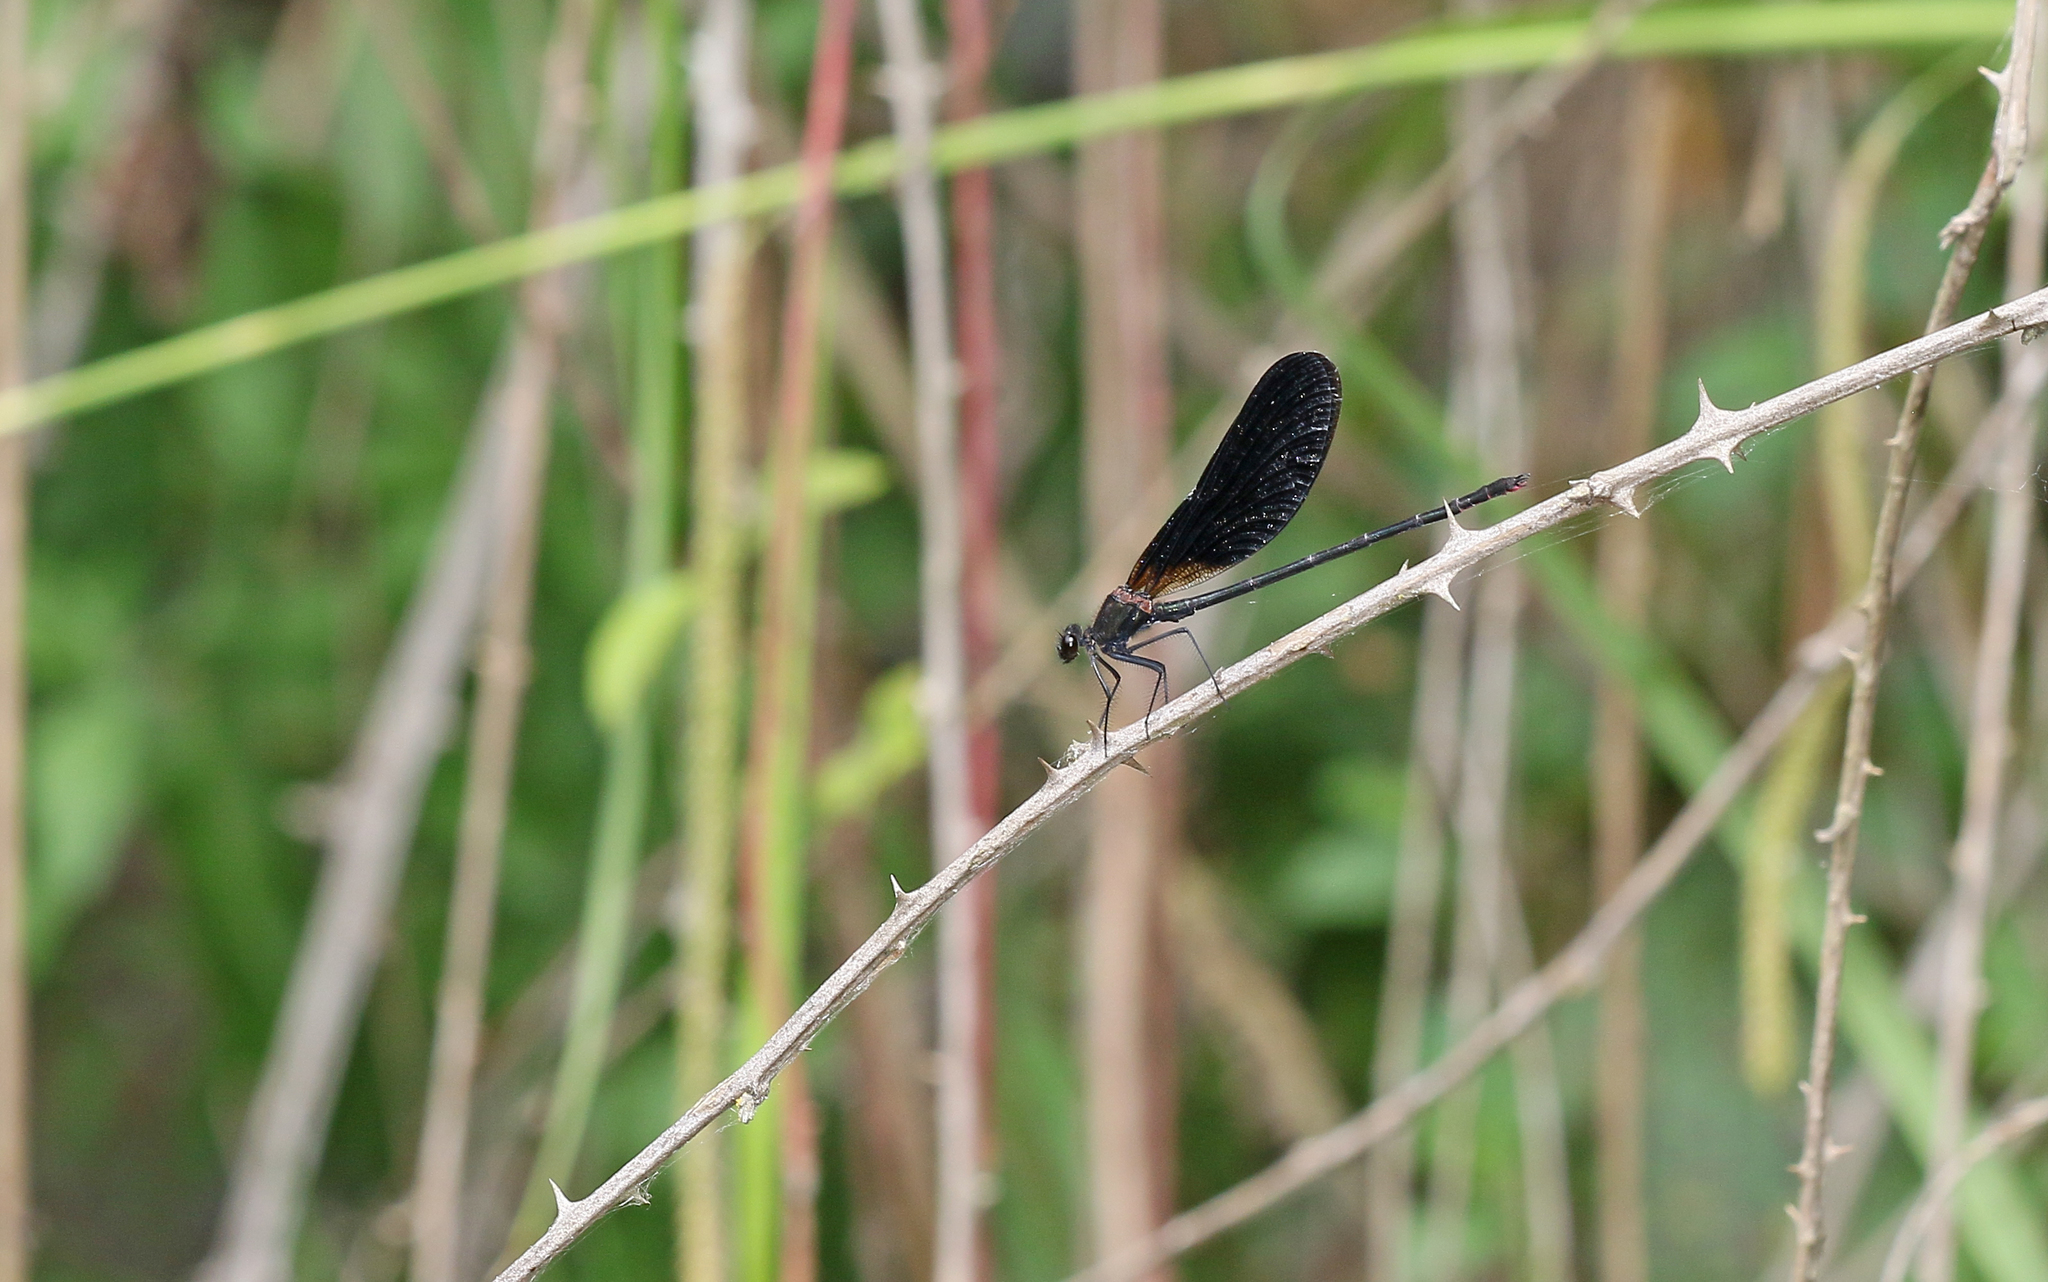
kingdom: Animalia
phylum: Arthropoda
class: Insecta
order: Odonata
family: Calopterygidae
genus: Calopteryx
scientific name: Calopteryx haemorrhoidalis
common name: Copper demoiselle
